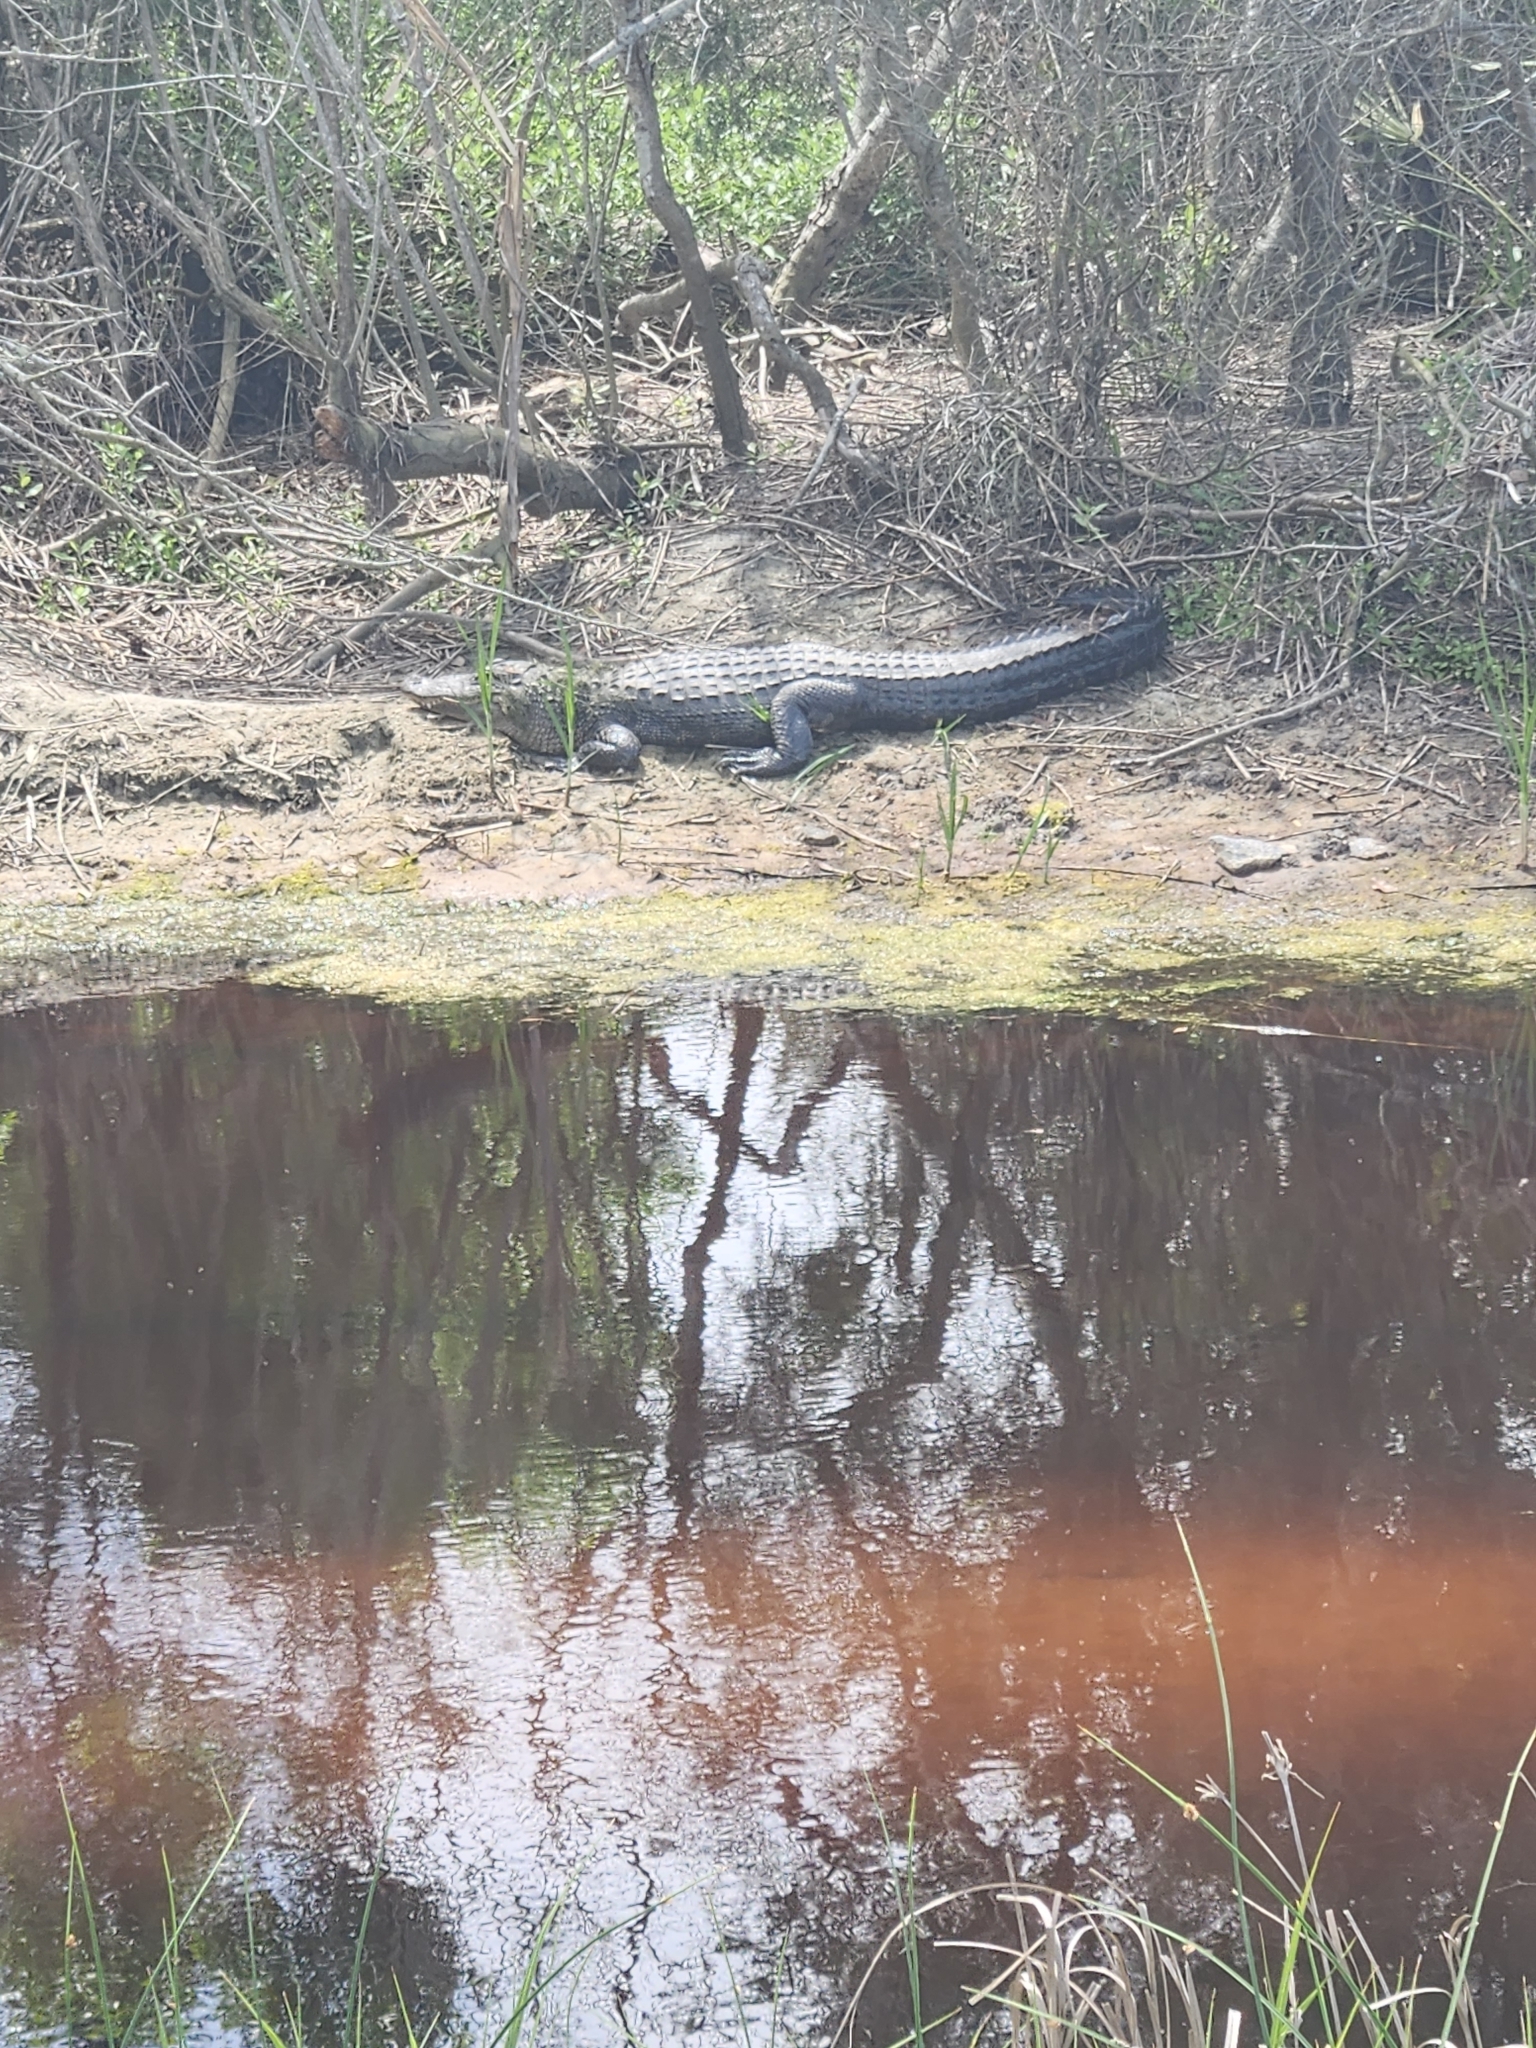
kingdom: Animalia
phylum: Chordata
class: Crocodylia
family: Alligatoridae
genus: Alligator
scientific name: Alligator mississippiensis
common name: American alligator
